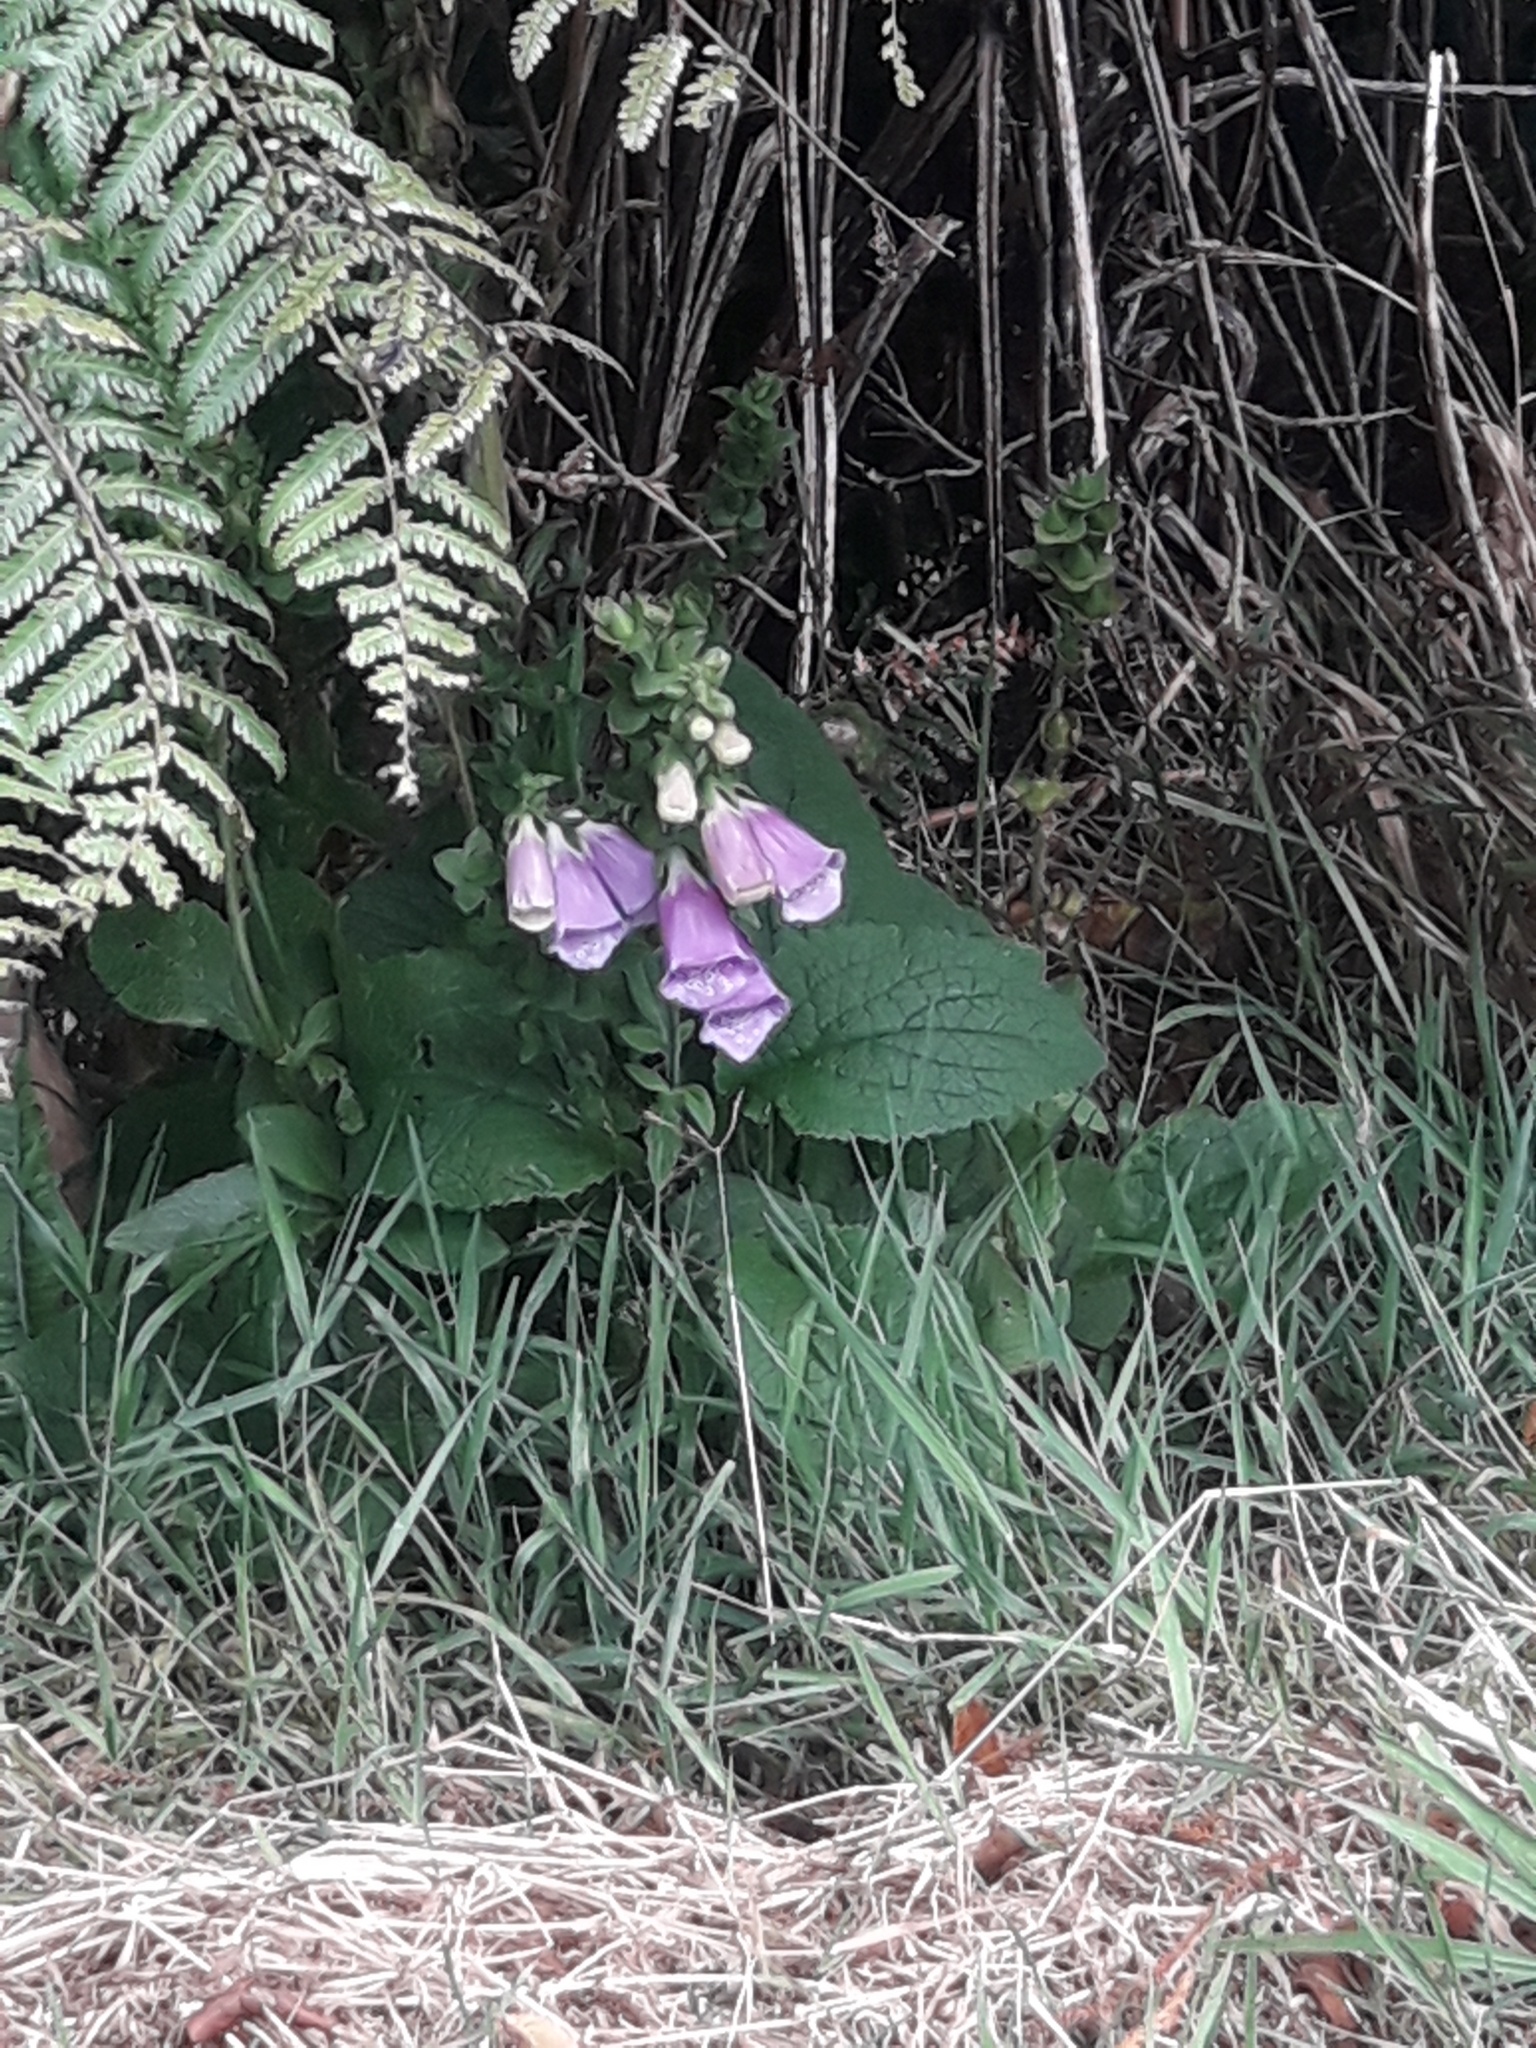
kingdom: Plantae
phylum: Tracheophyta
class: Magnoliopsida
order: Lamiales
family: Plantaginaceae
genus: Digitalis
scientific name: Digitalis purpurea
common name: Foxglove
